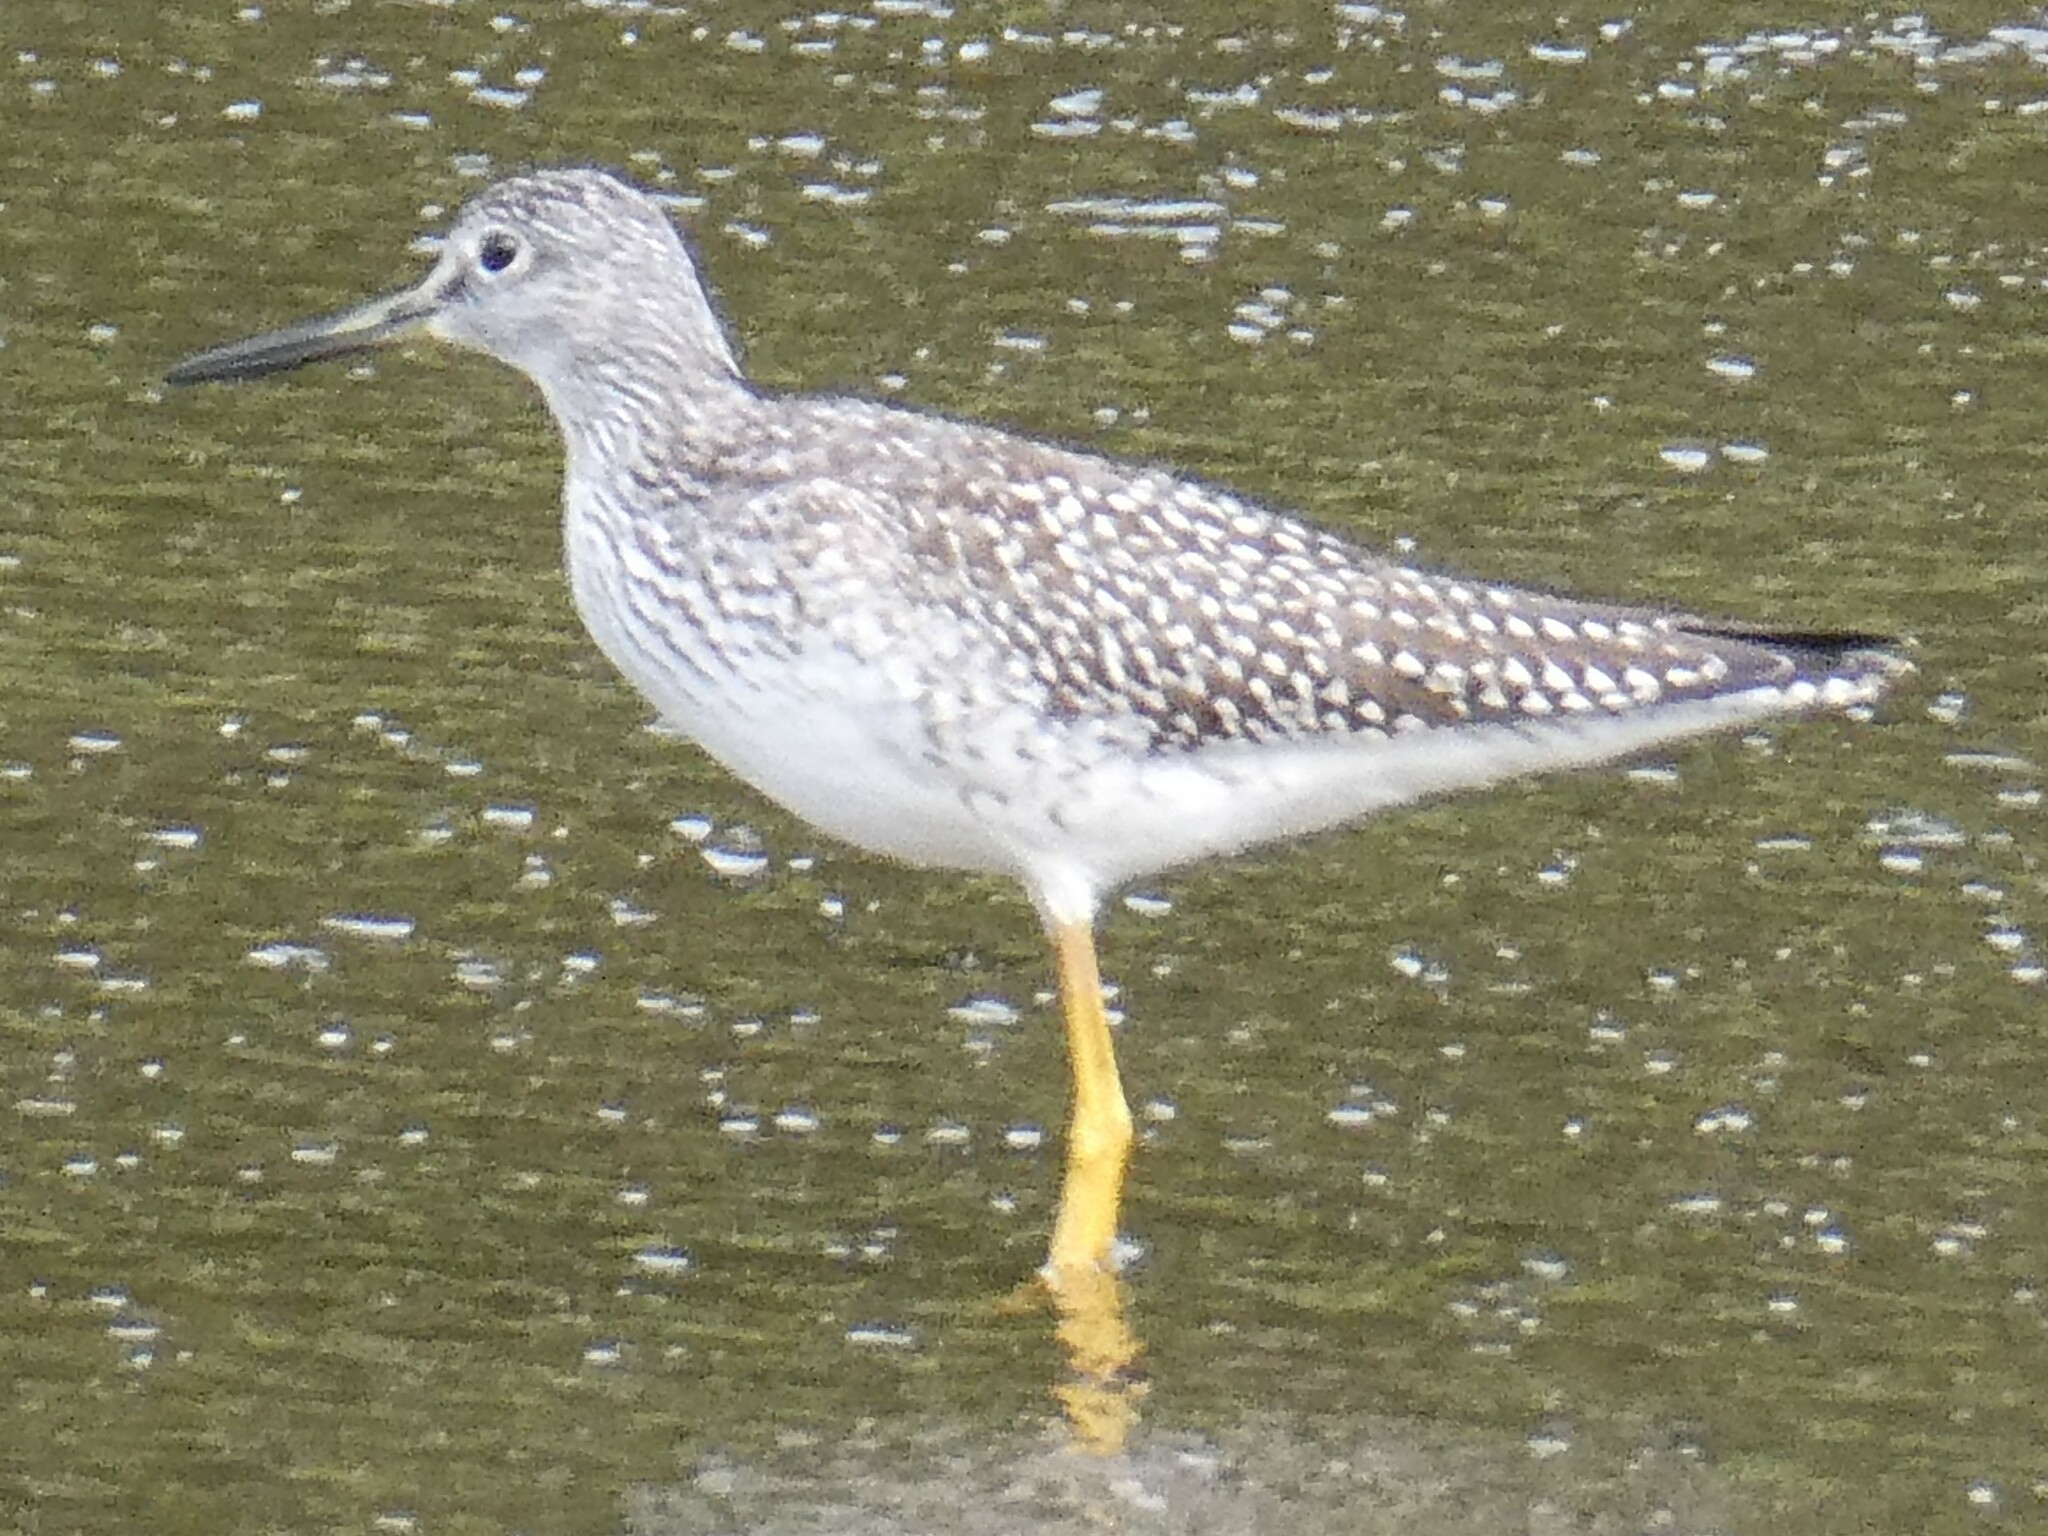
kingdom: Animalia
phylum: Chordata
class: Aves
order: Charadriiformes
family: Scolopacidae
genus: Tringa
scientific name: Tringa melanoleuca
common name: Greater yellowlegs
